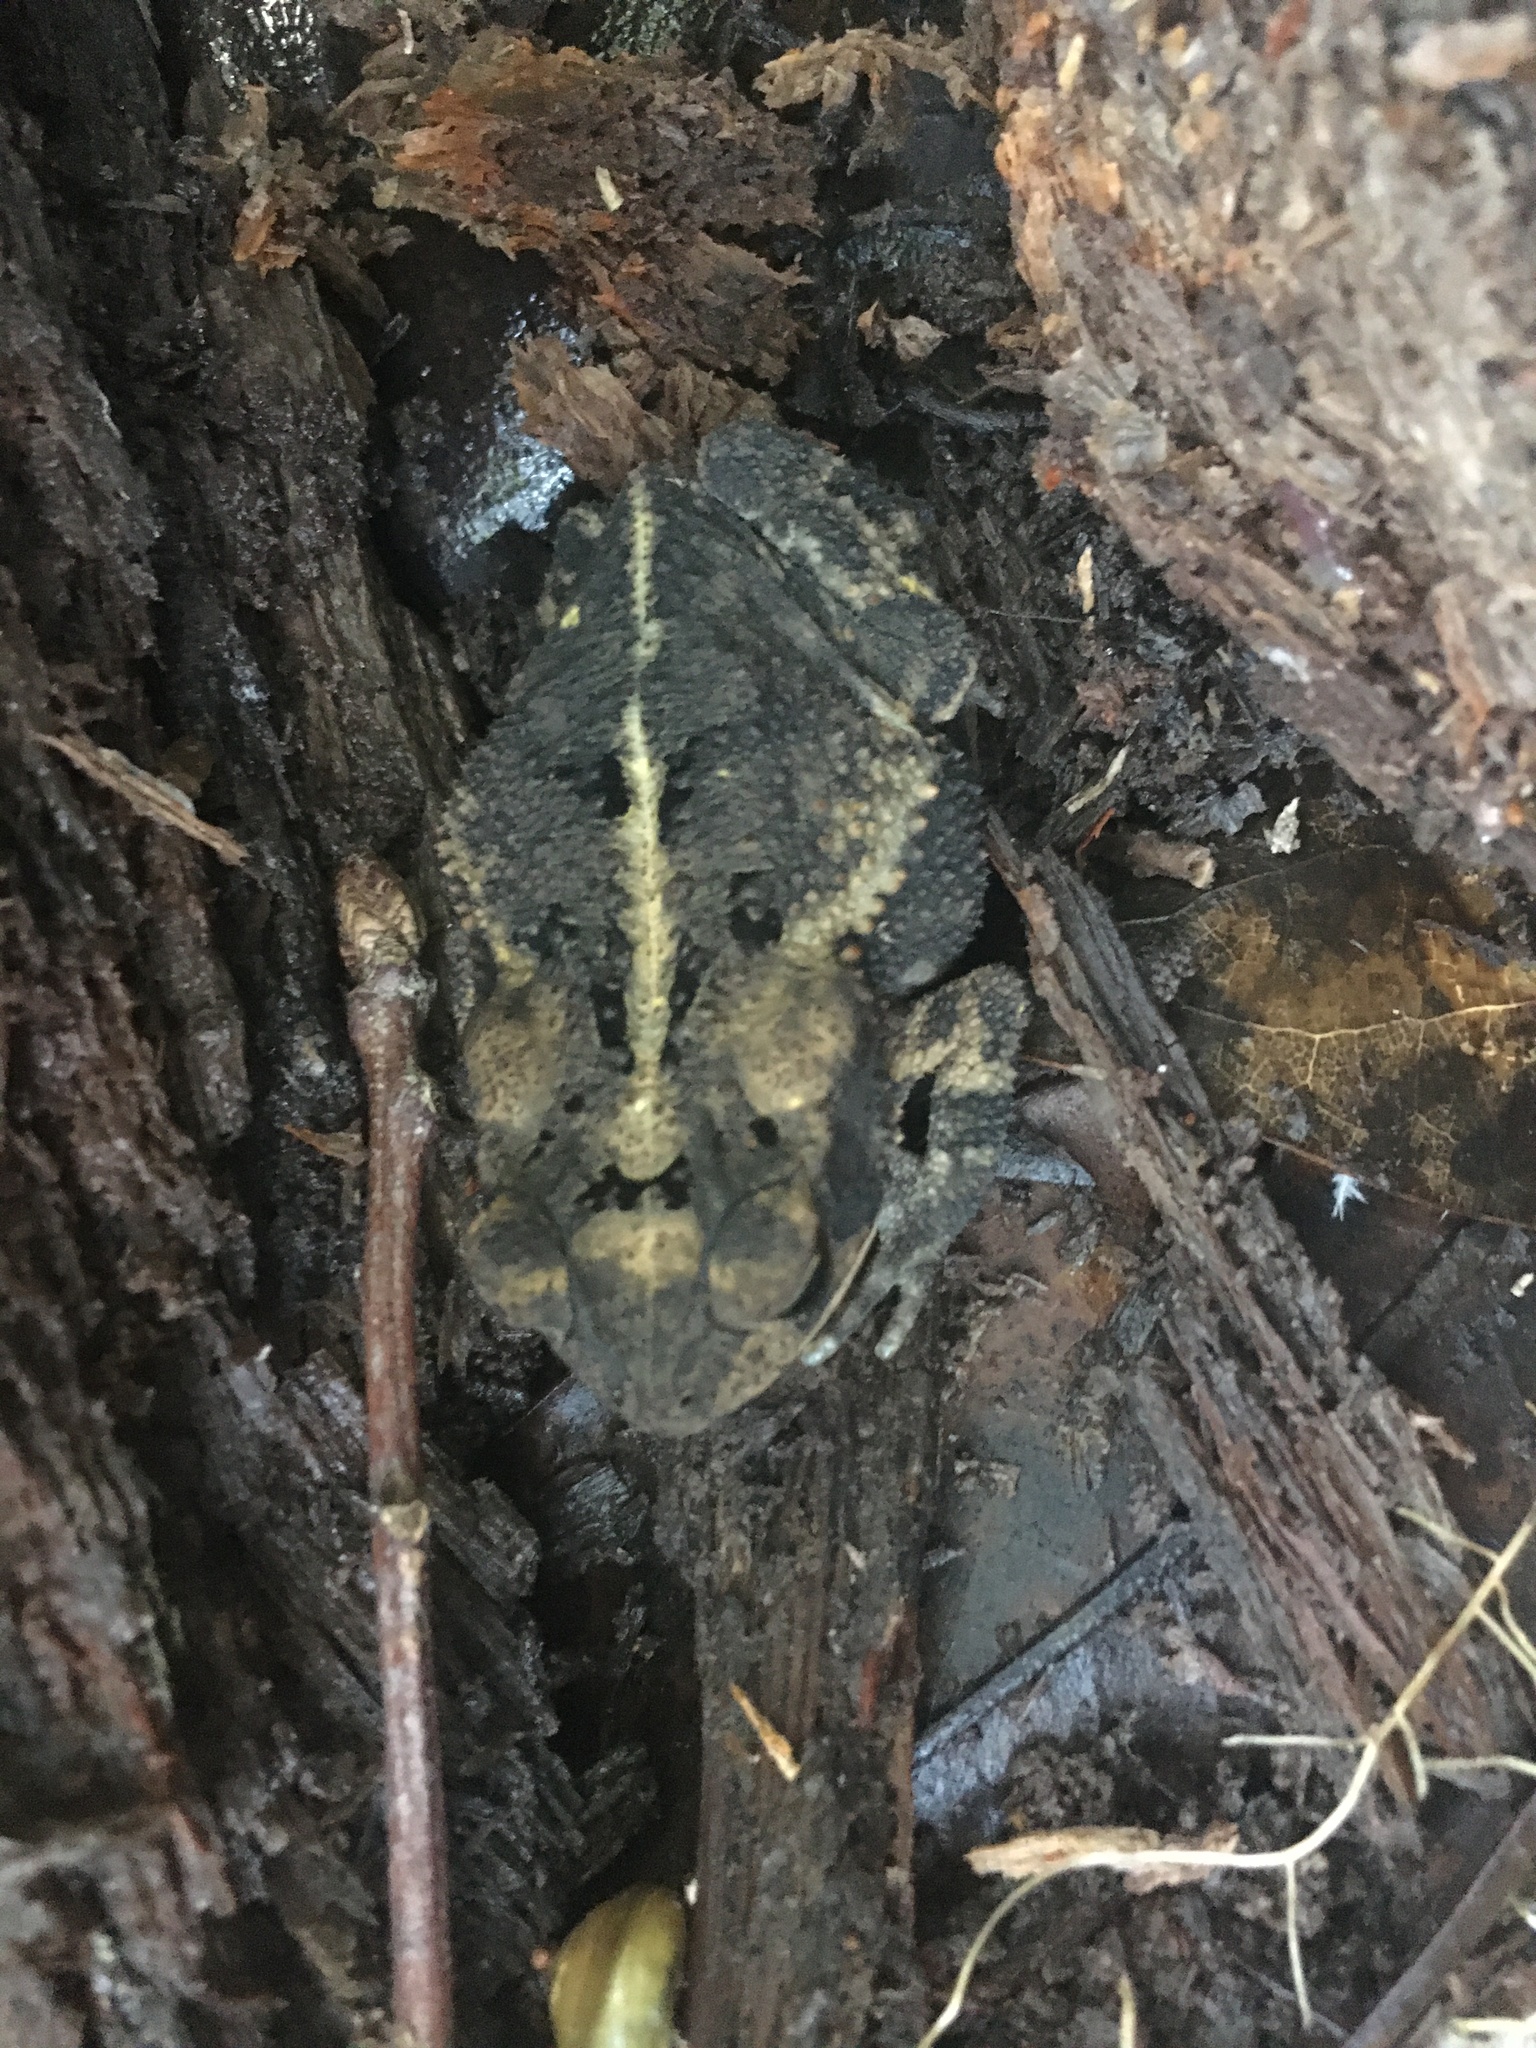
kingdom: Animalia
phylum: Chordata
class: Amphibia
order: Anura
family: Bufonidae
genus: Incilius
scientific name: Incilius nebulifer
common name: Gulf coast toad
